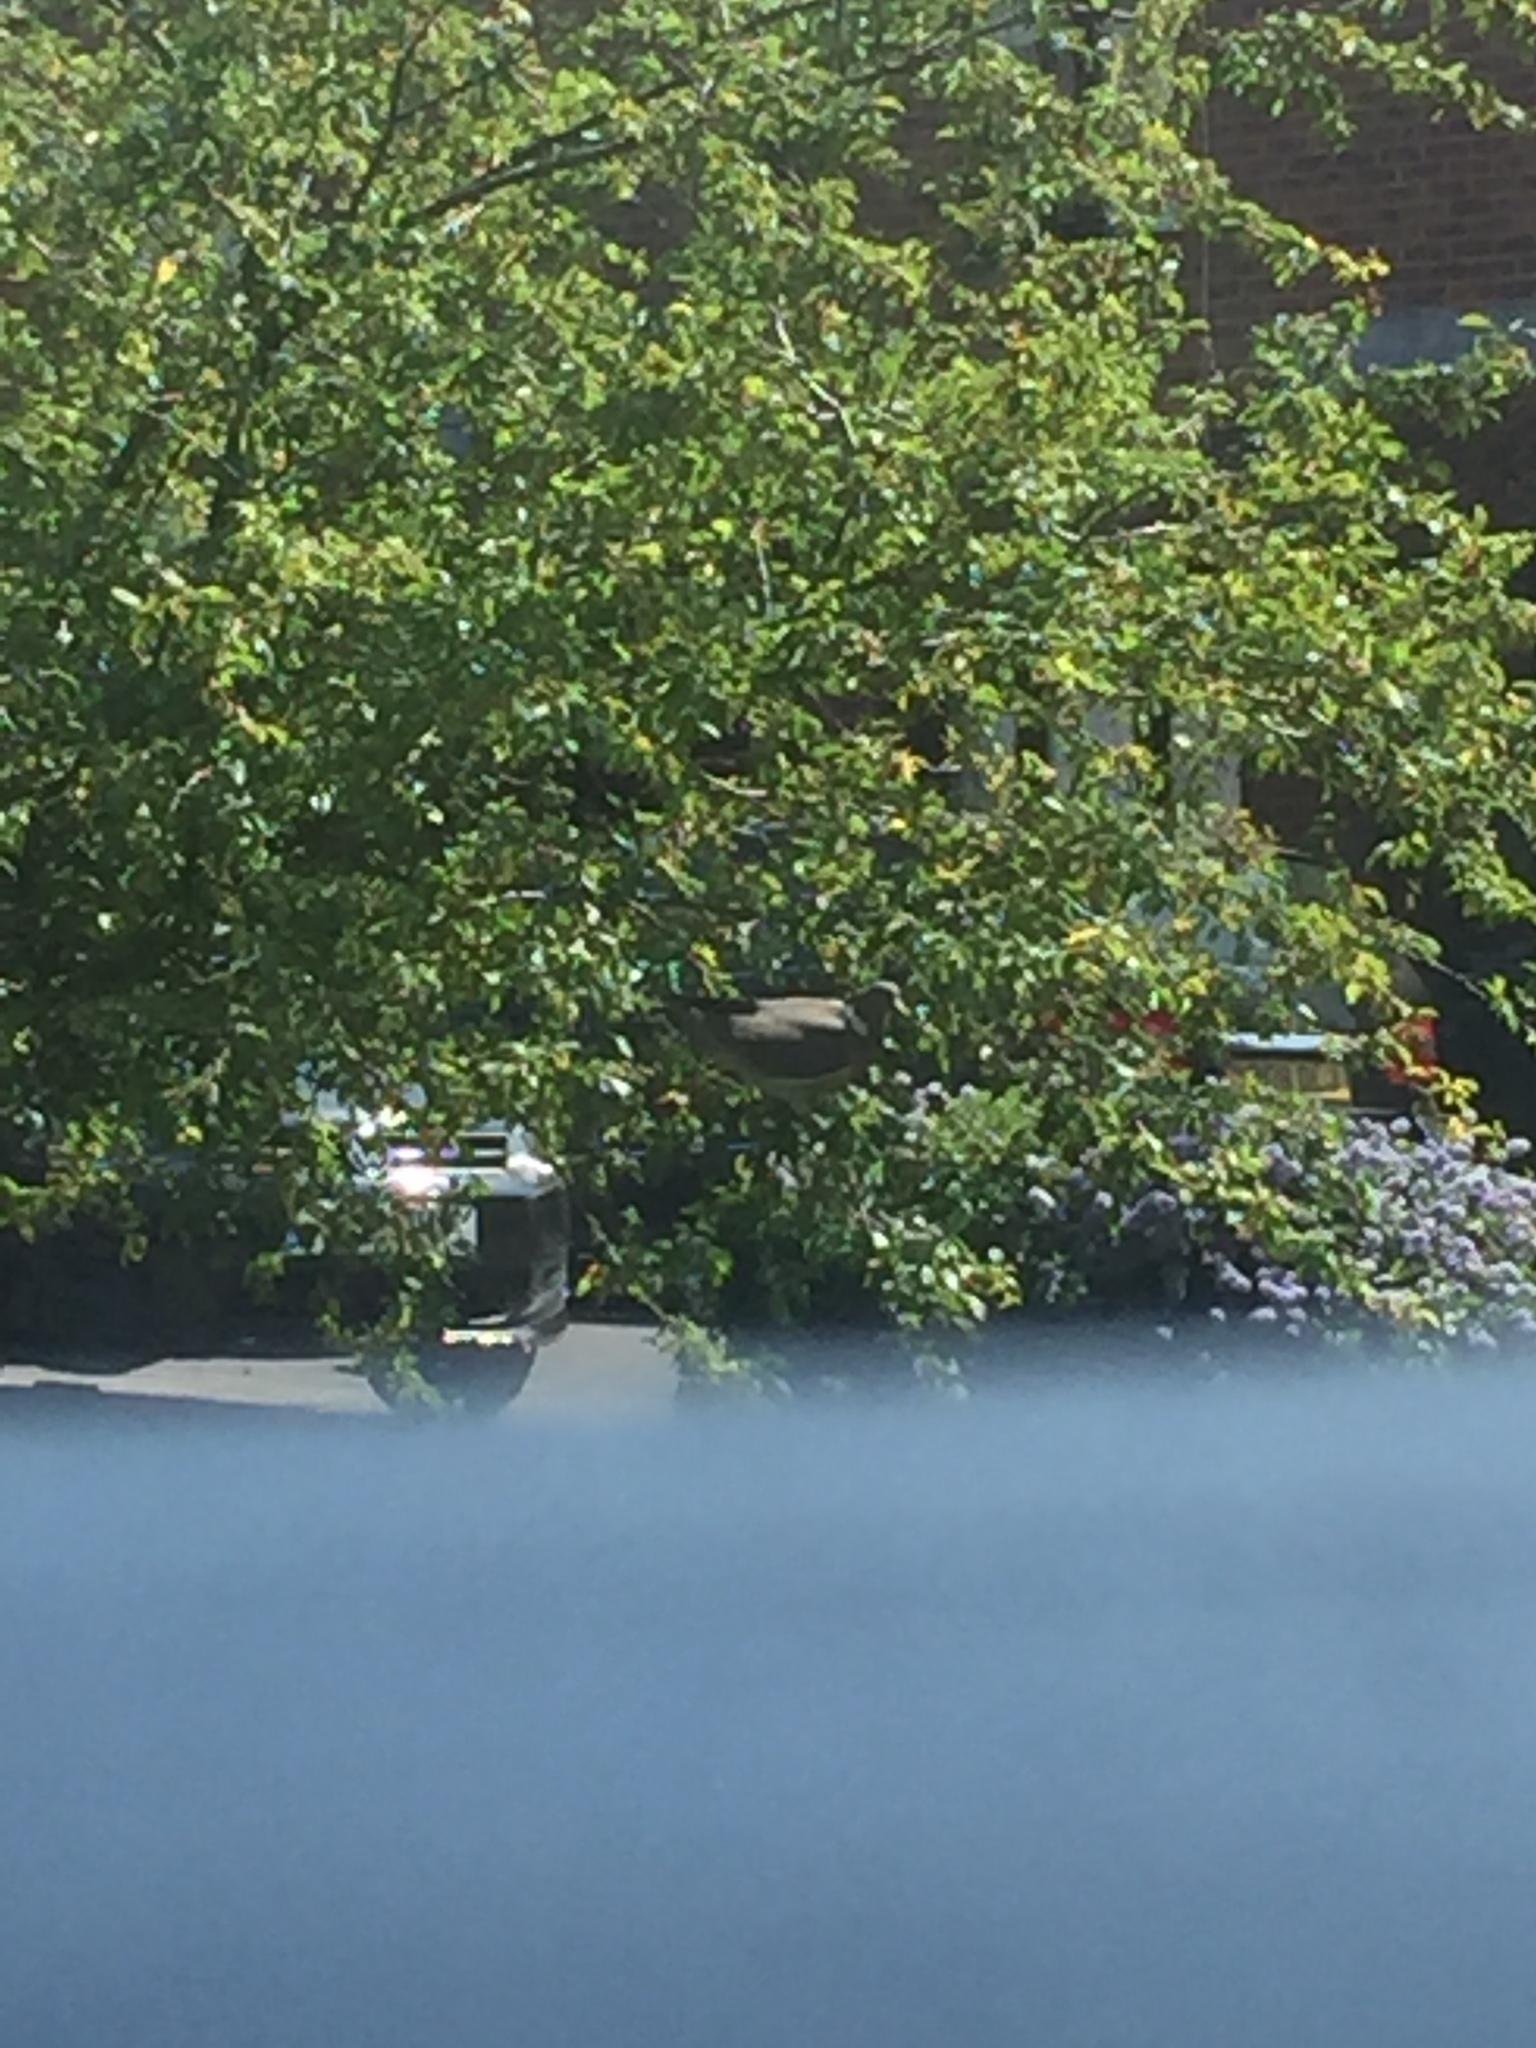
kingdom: Animalia
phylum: Chordata
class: Aves
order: Columbiformes
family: Columbidae
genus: Columba
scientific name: Columba palumbus
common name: Common wood pigeon
